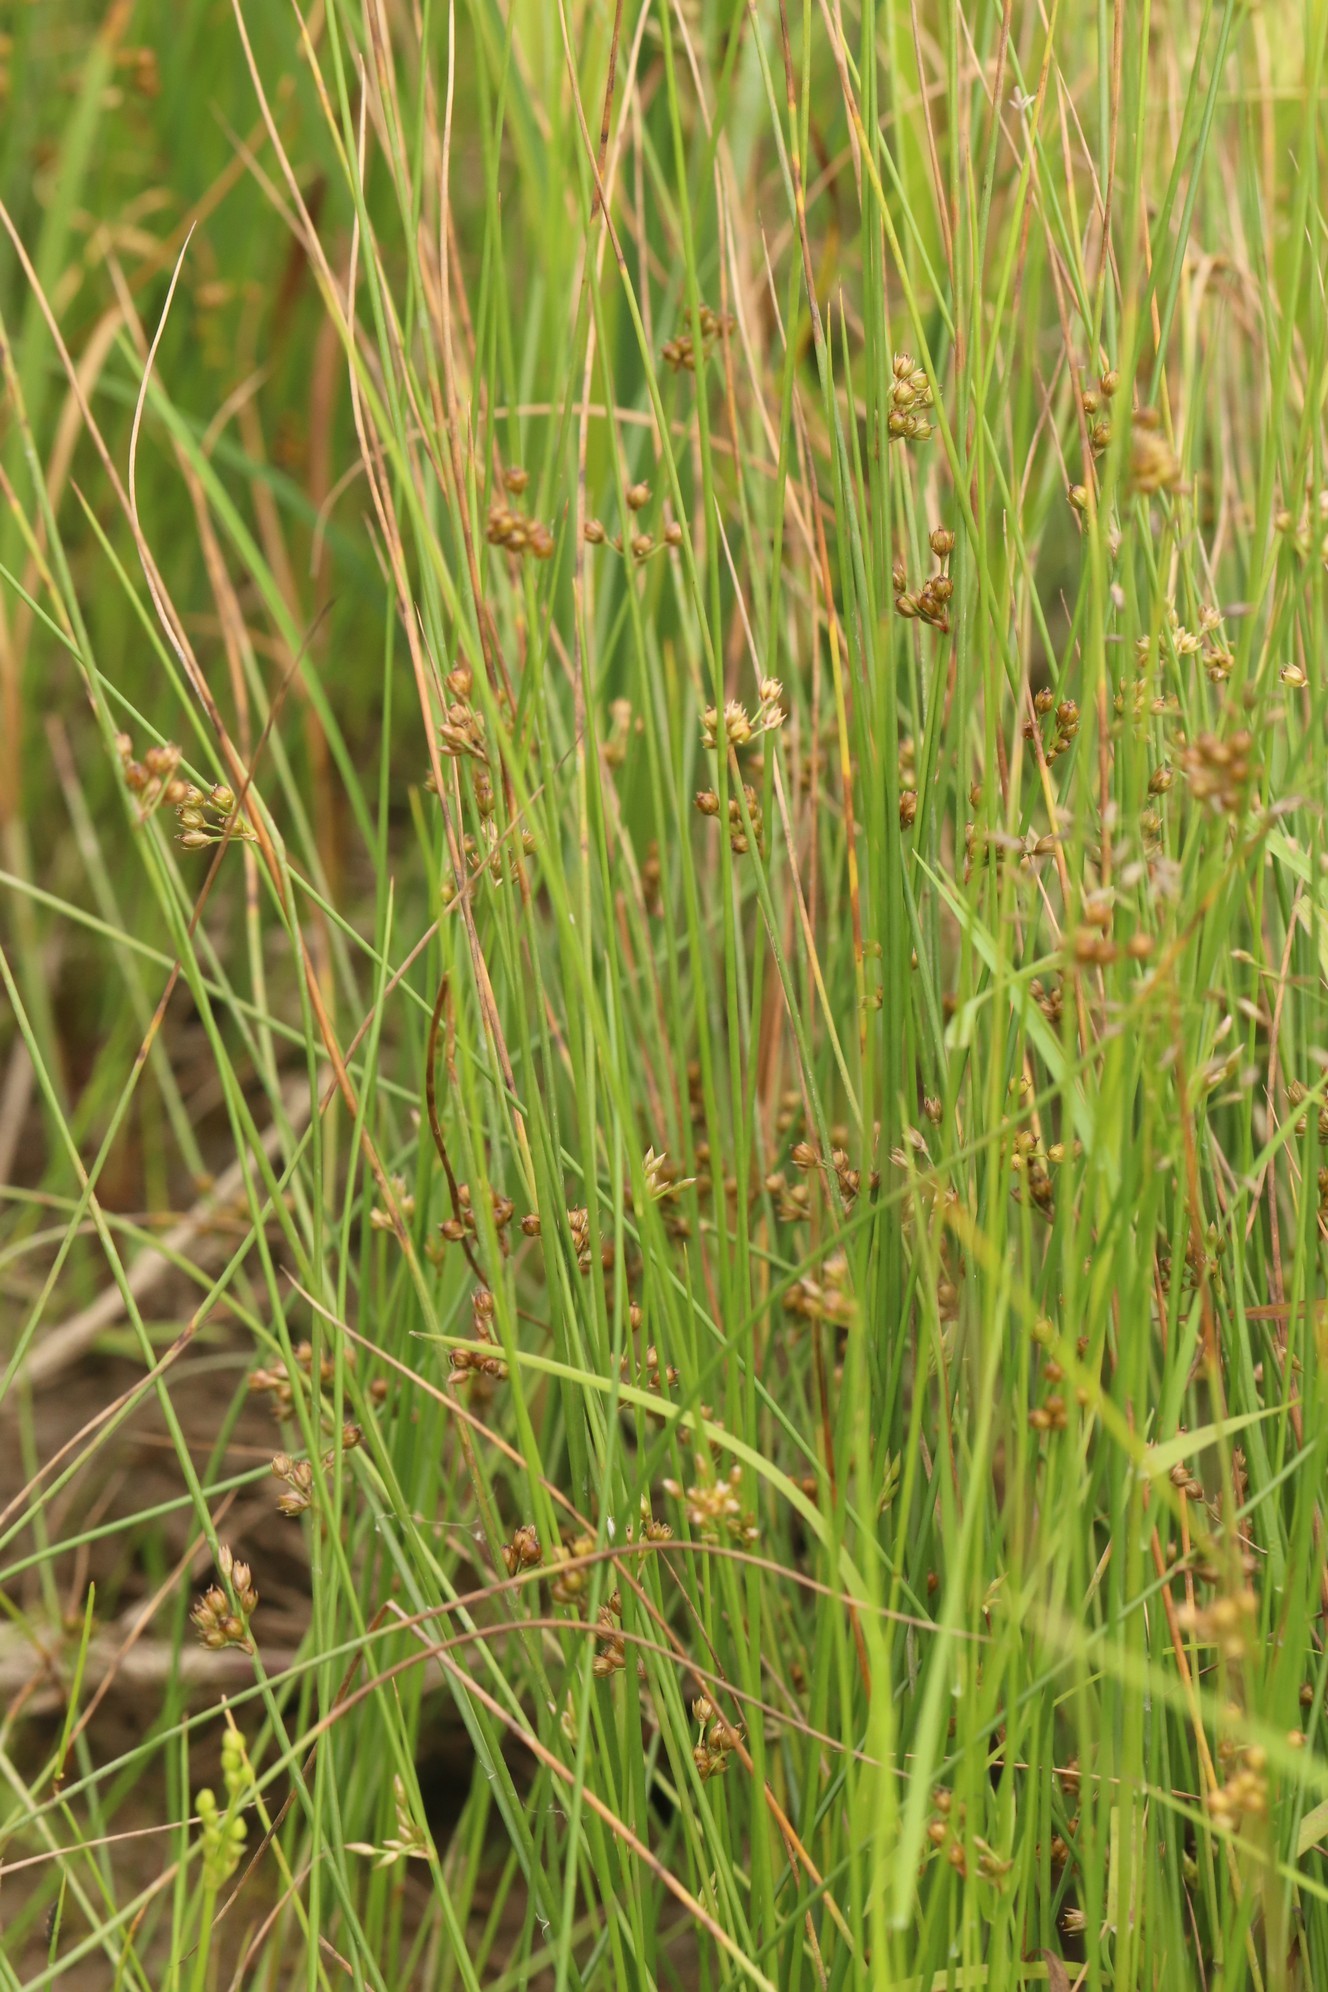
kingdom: Plantae
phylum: Tracheophyta
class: Liliopsida
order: Poales
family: Juncaceae
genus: Juncus
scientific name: Juncus filiformis
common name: Thread rush
